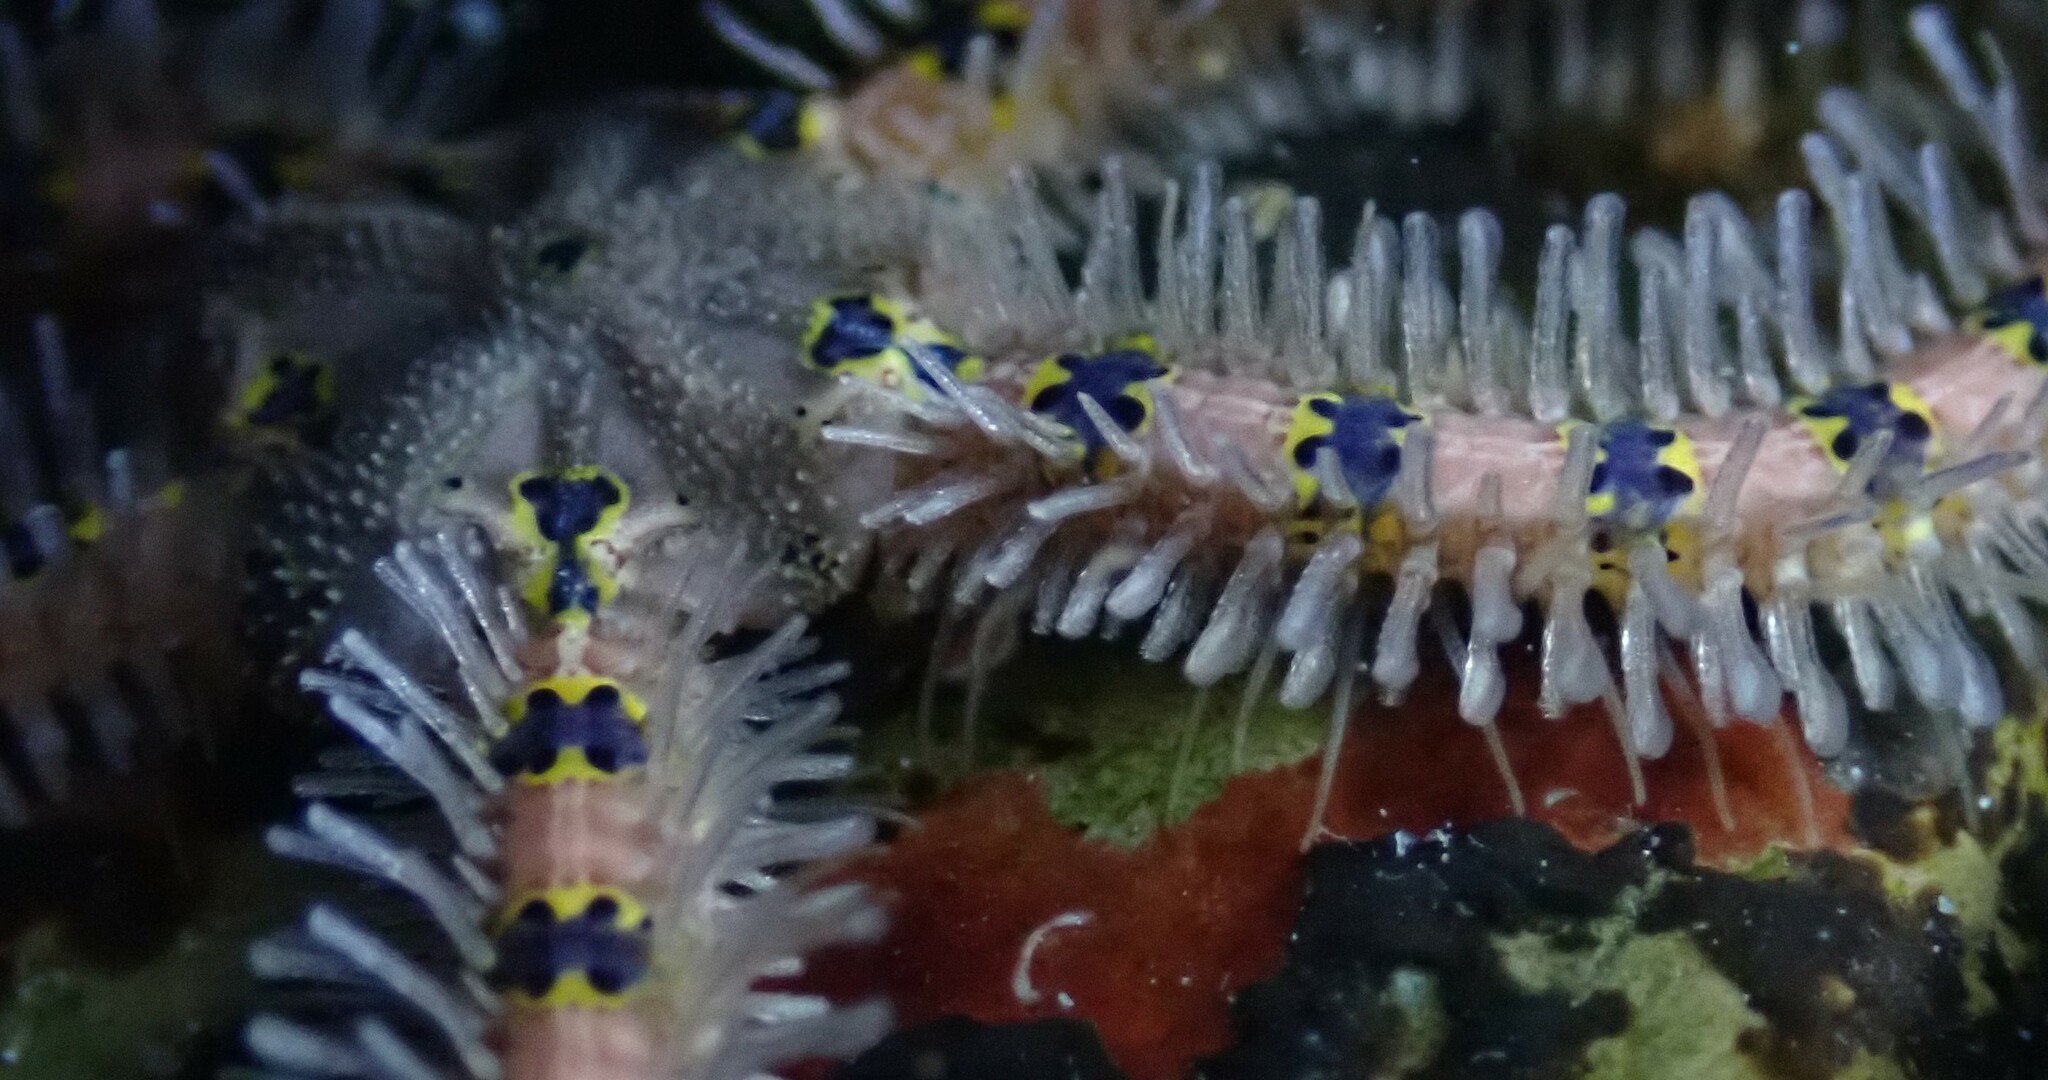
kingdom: Animalia
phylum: Echinodermata
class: Ophiuroidea
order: Amphilepidida
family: Ophiotrichidae
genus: Macrophiothrix
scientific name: Macrophiothrix spongicola
